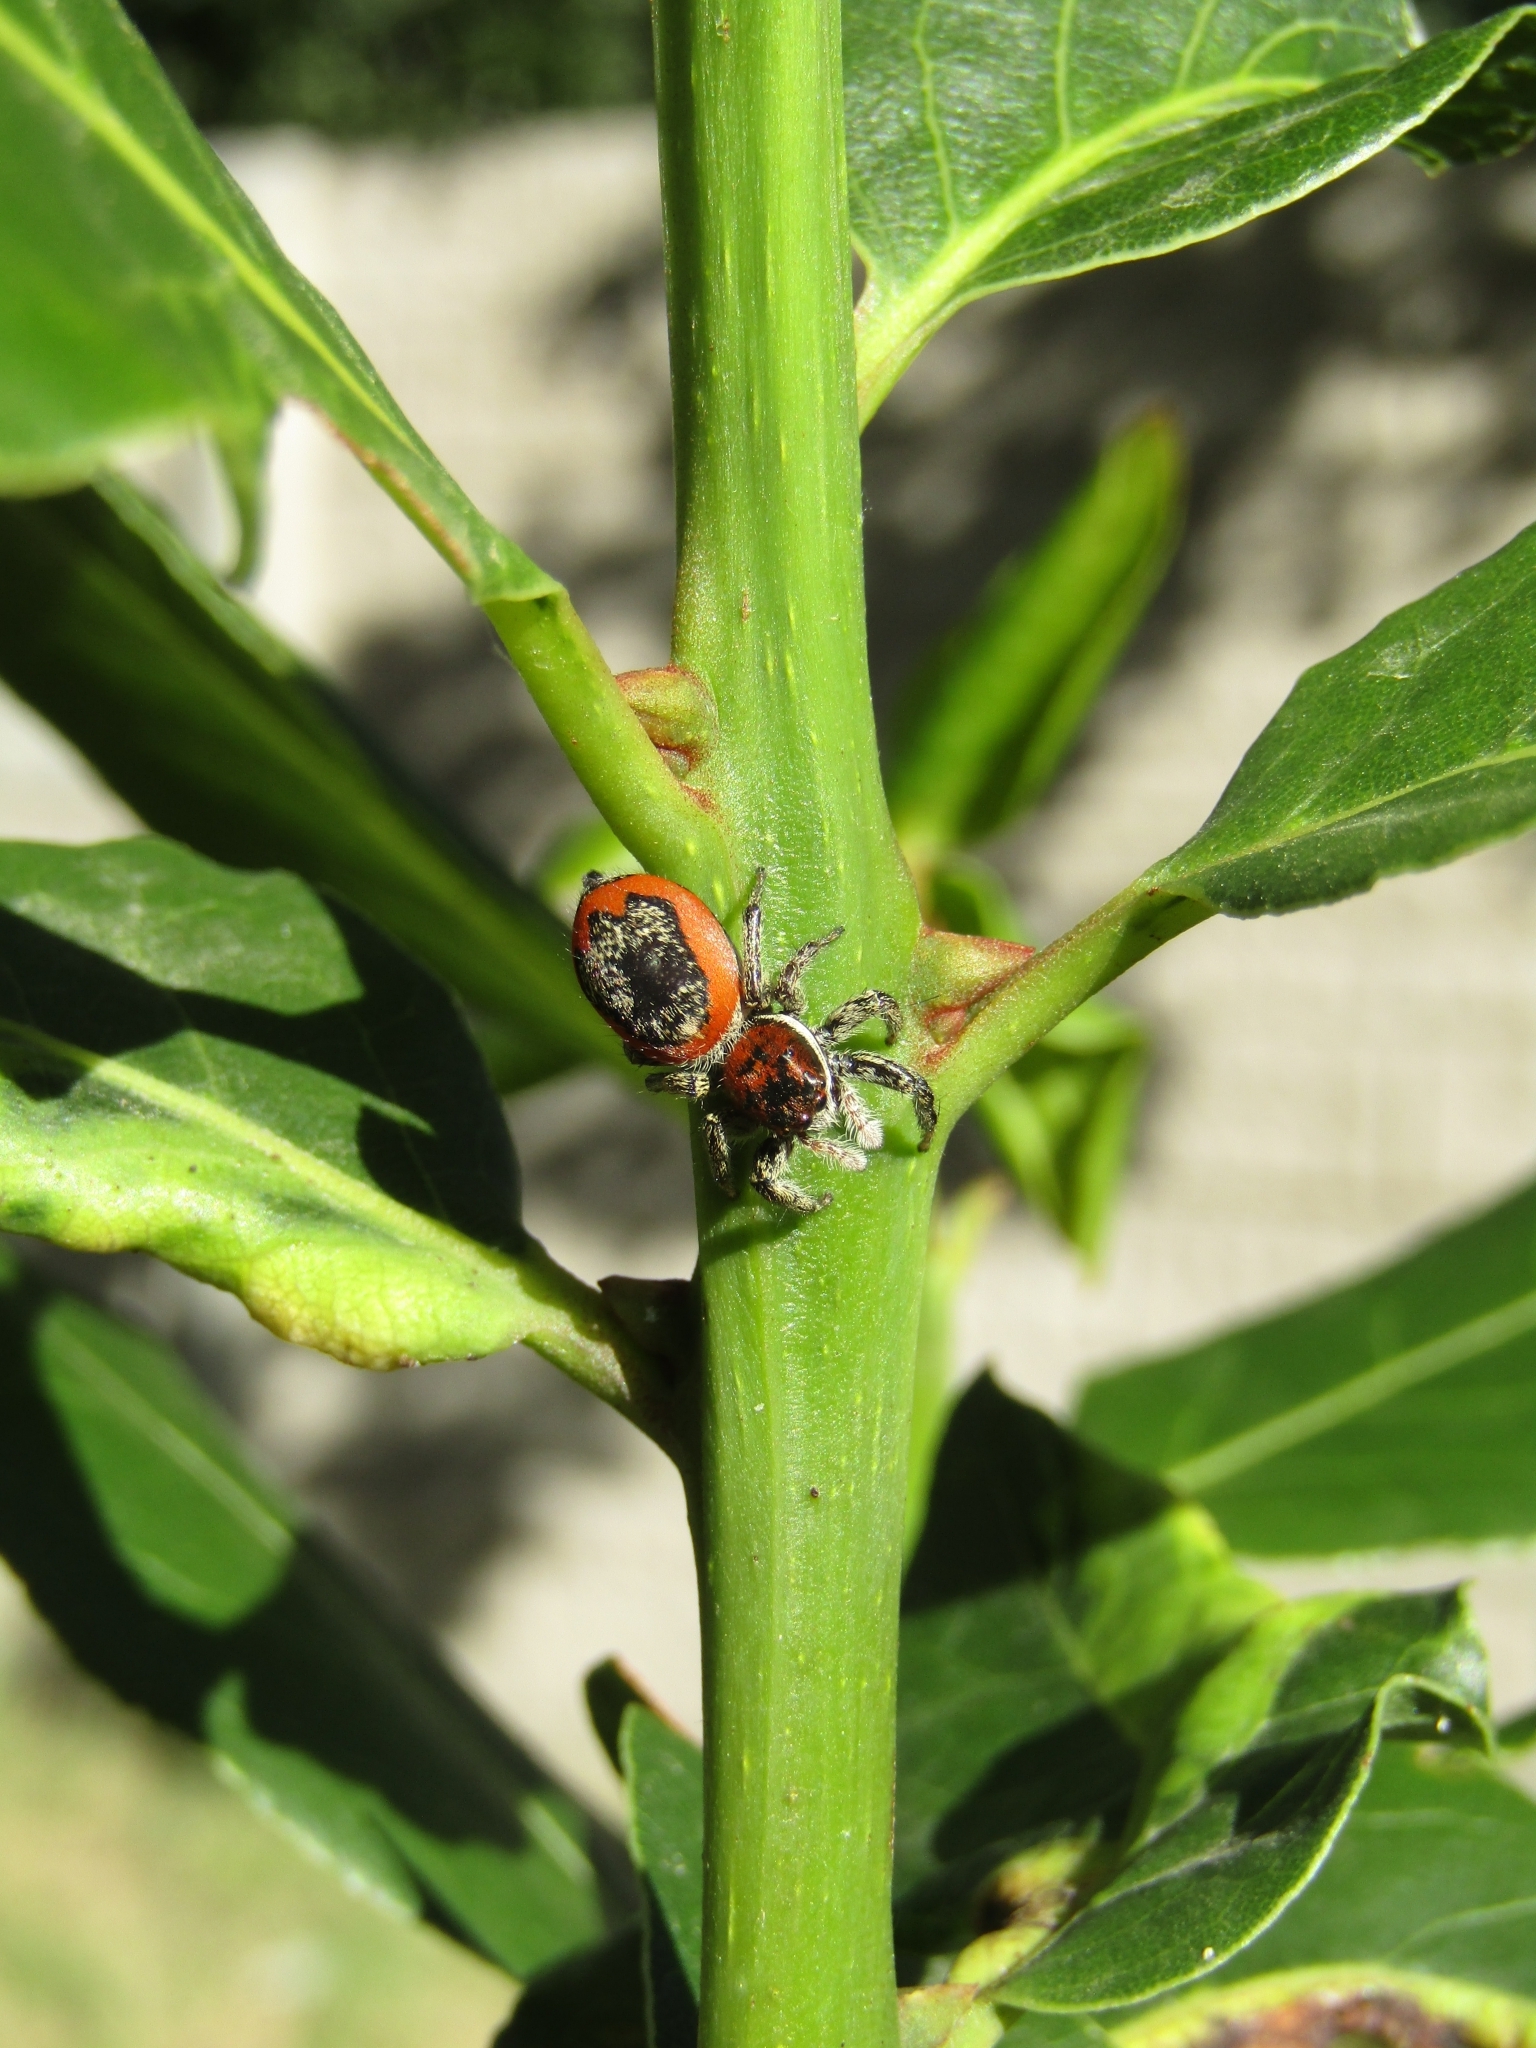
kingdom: Animalia
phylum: Arthropoda
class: Arachnida
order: Araneae
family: Salticidae
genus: Phiale
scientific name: Phiale roburifoliata
